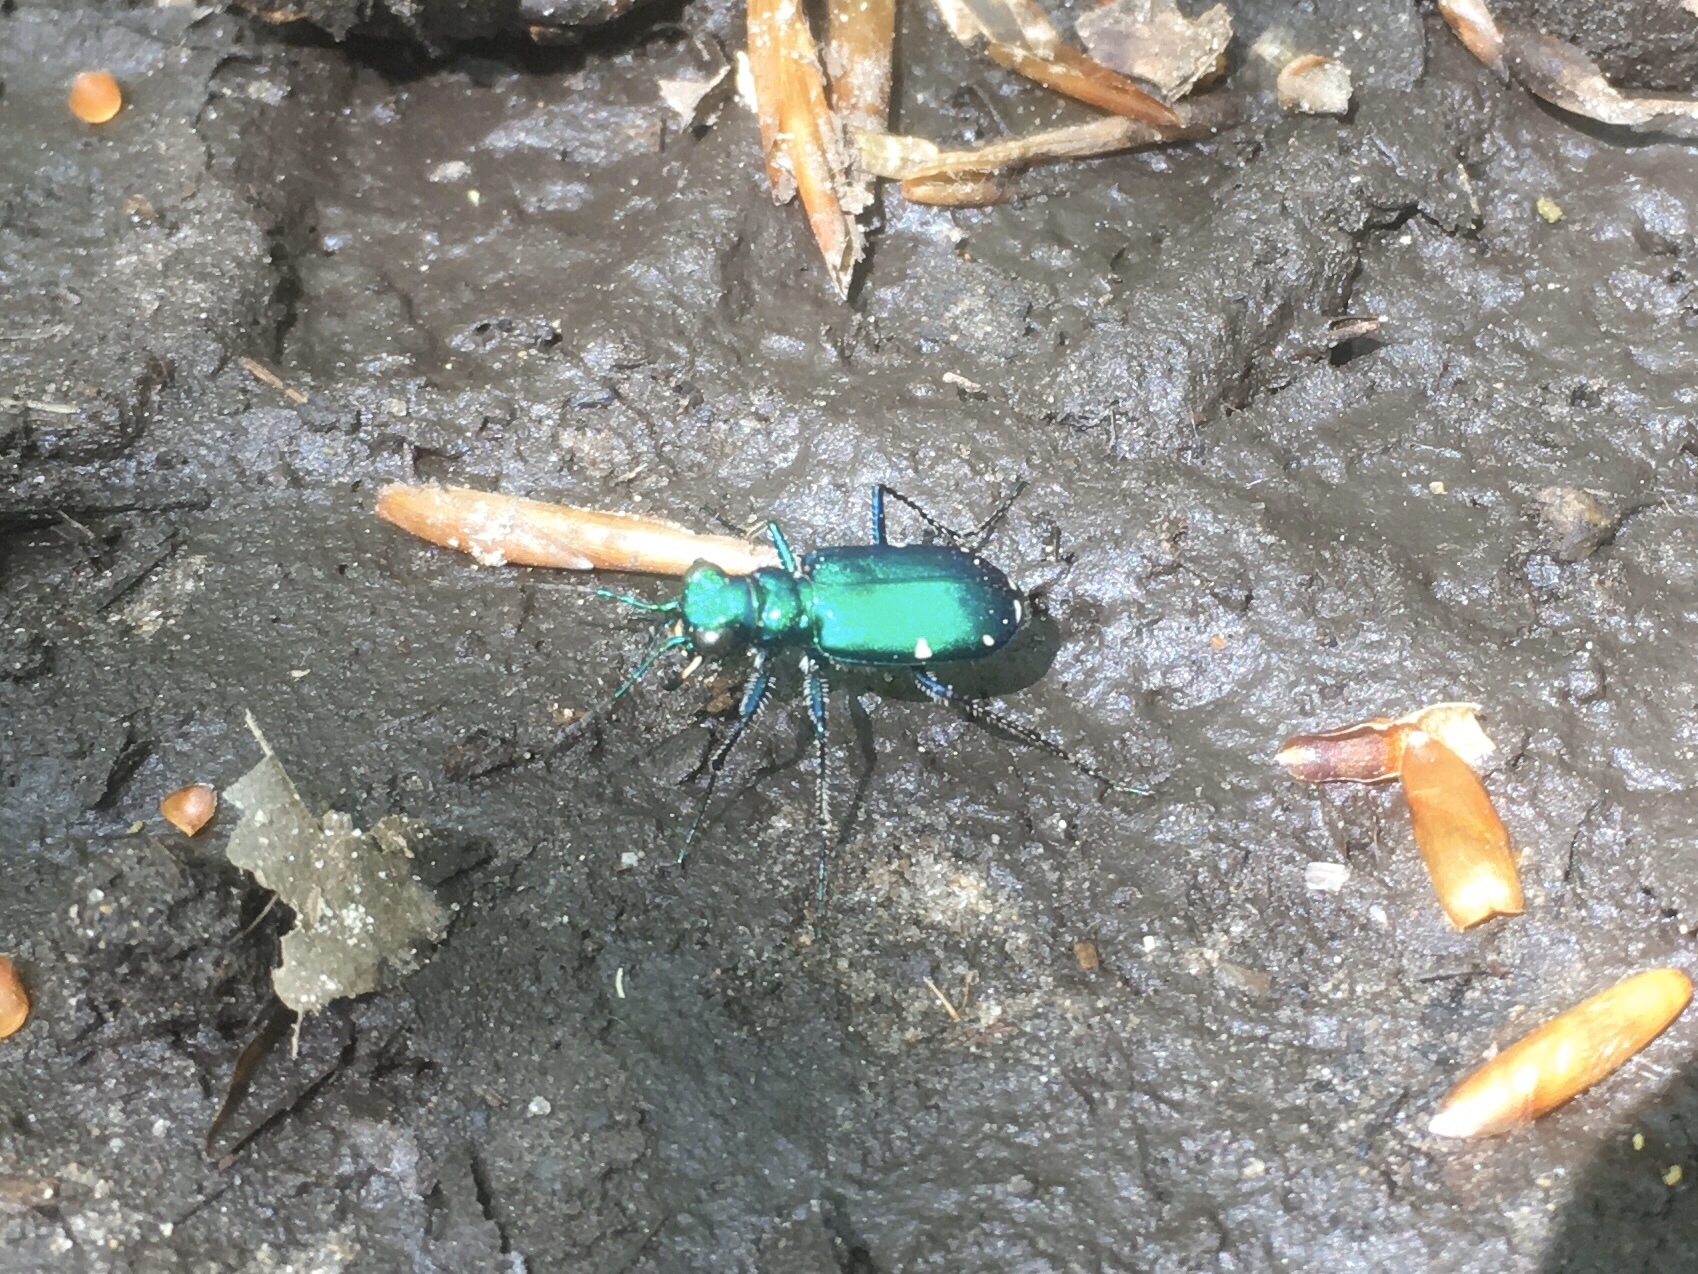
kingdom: Animalia
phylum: Arthropoda
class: Insecta
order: Coleoptera
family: Carabidae
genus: Cicindela
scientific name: Cicindela sexguttata
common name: Six-spotted tiger beetle
